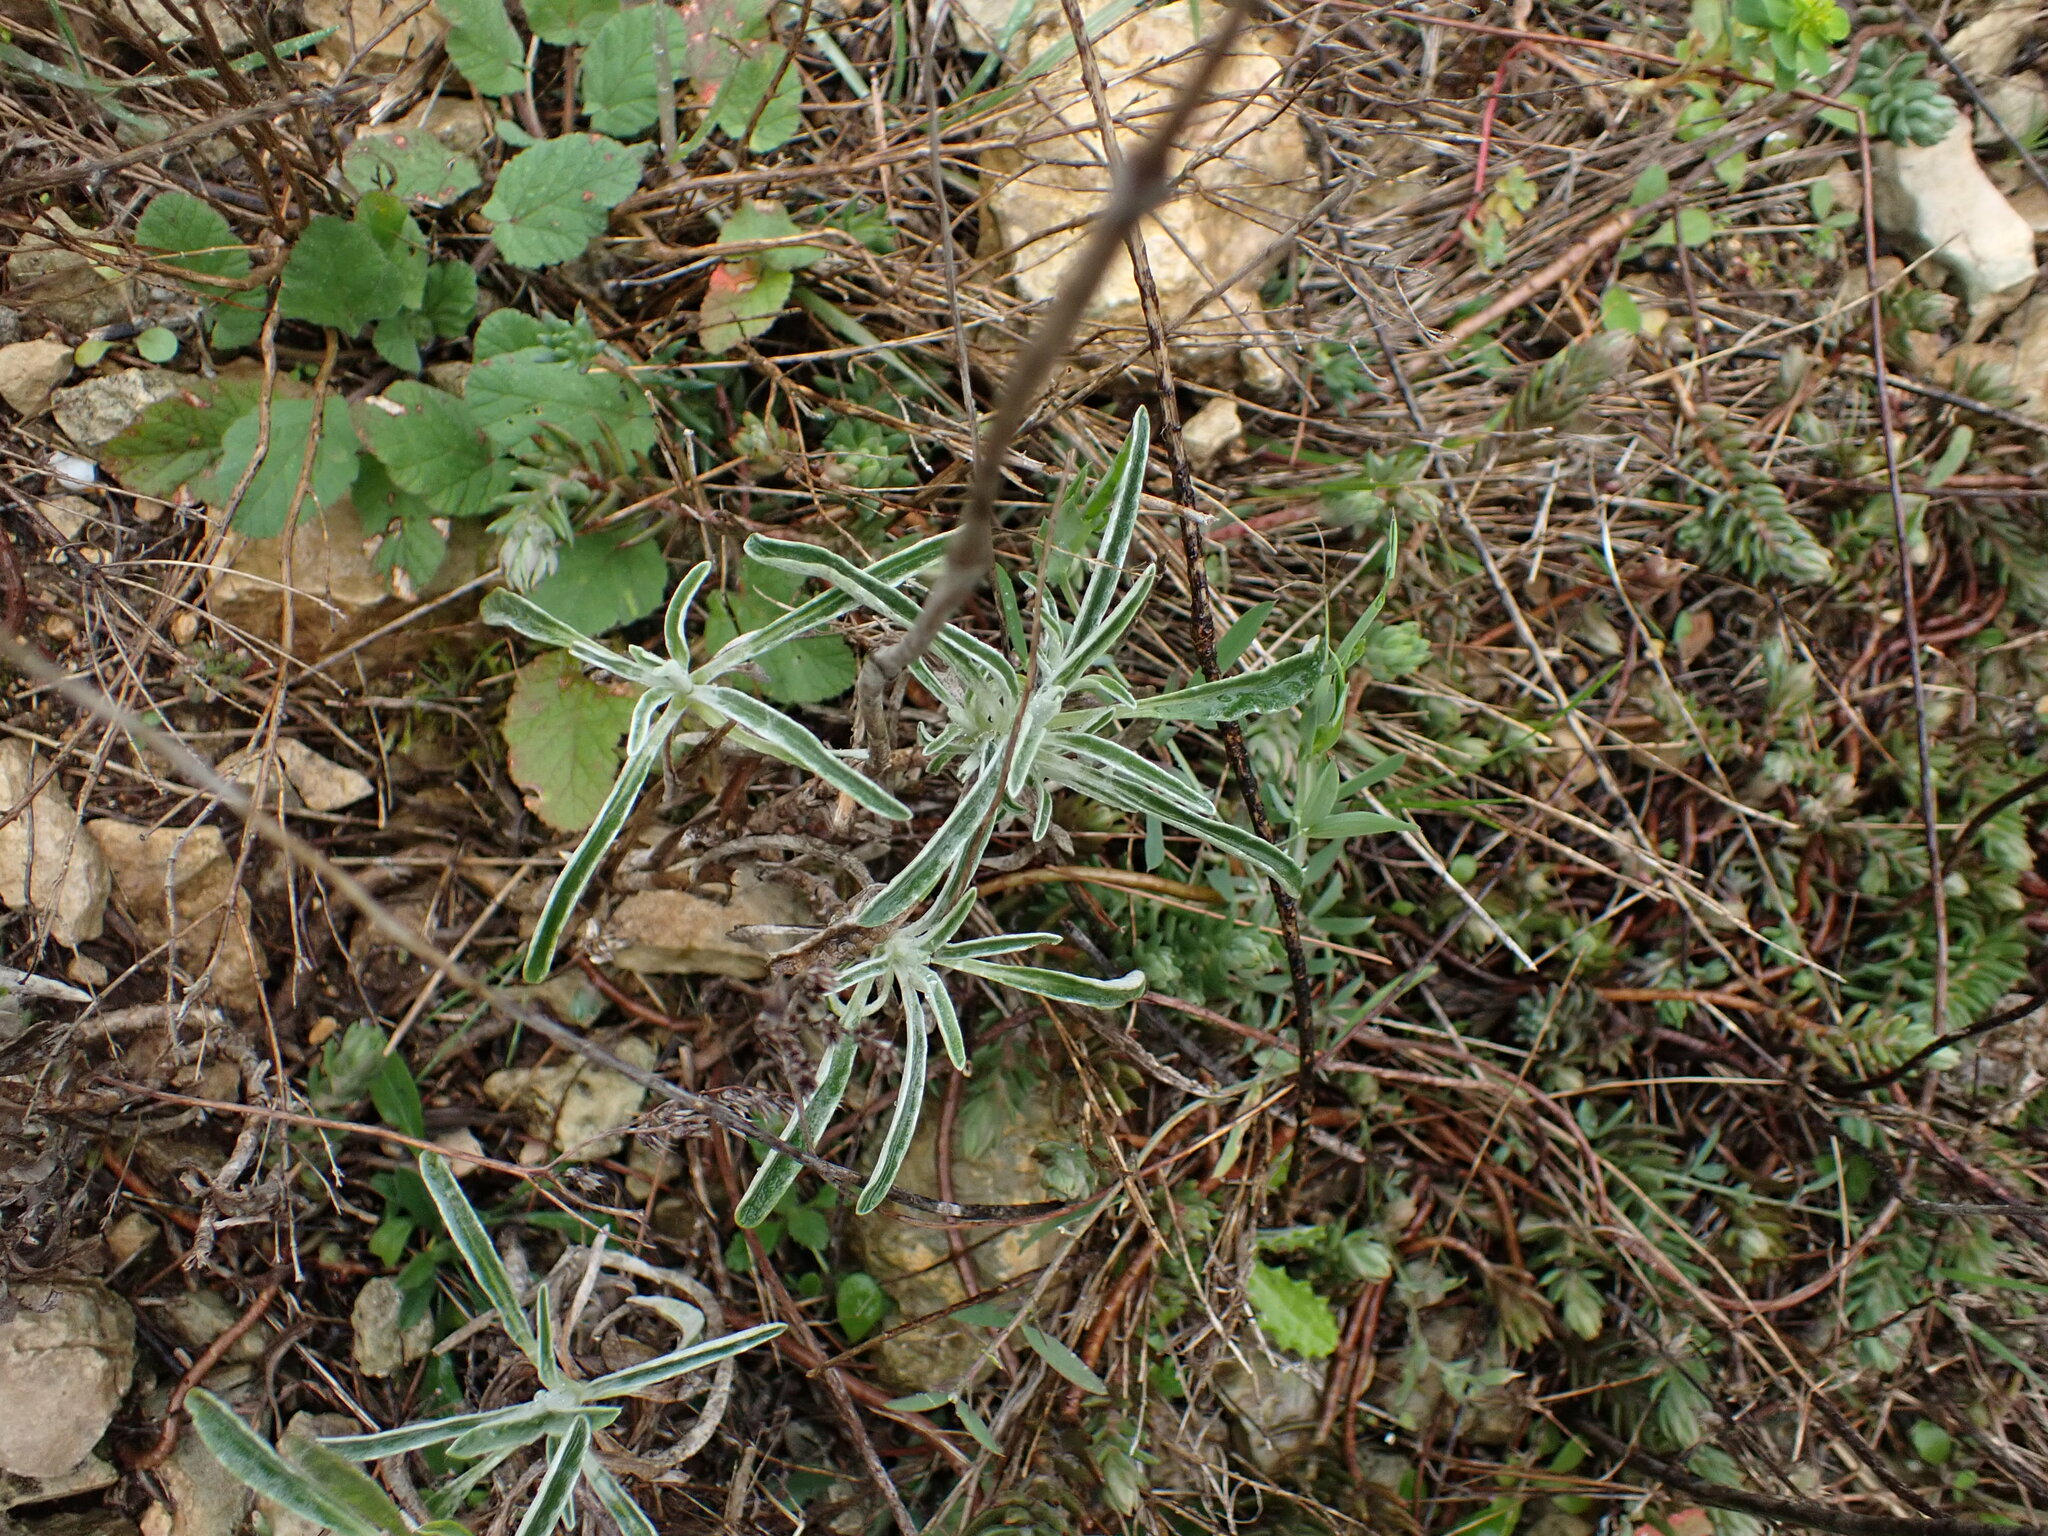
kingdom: Plantae
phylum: Tracheophyta
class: Magnoliopsida
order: Lamiales
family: Lamiaceae
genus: Phlomis
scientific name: Phlomis lychnitis
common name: Lampwickplant
